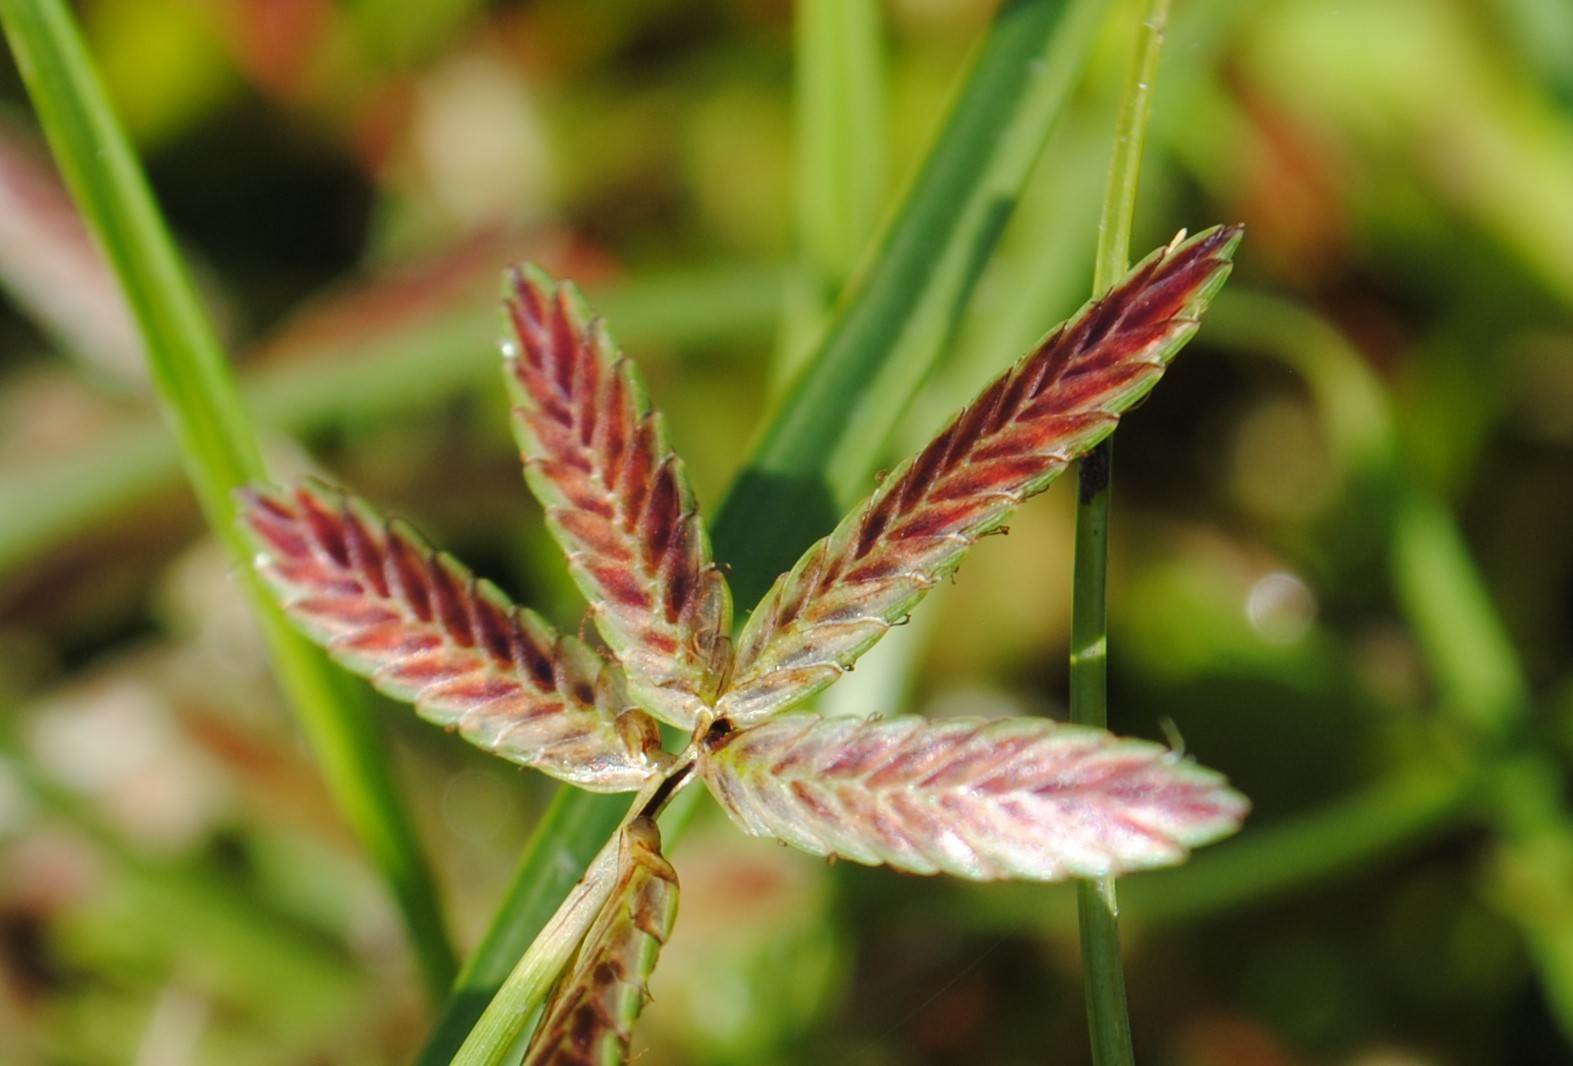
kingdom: Plantae
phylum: Tracheophyta
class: Liliopsida
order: Poales
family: Cyperaceae
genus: Cyperus
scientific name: Cyperus bipartitus
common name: Brook flatsedge
